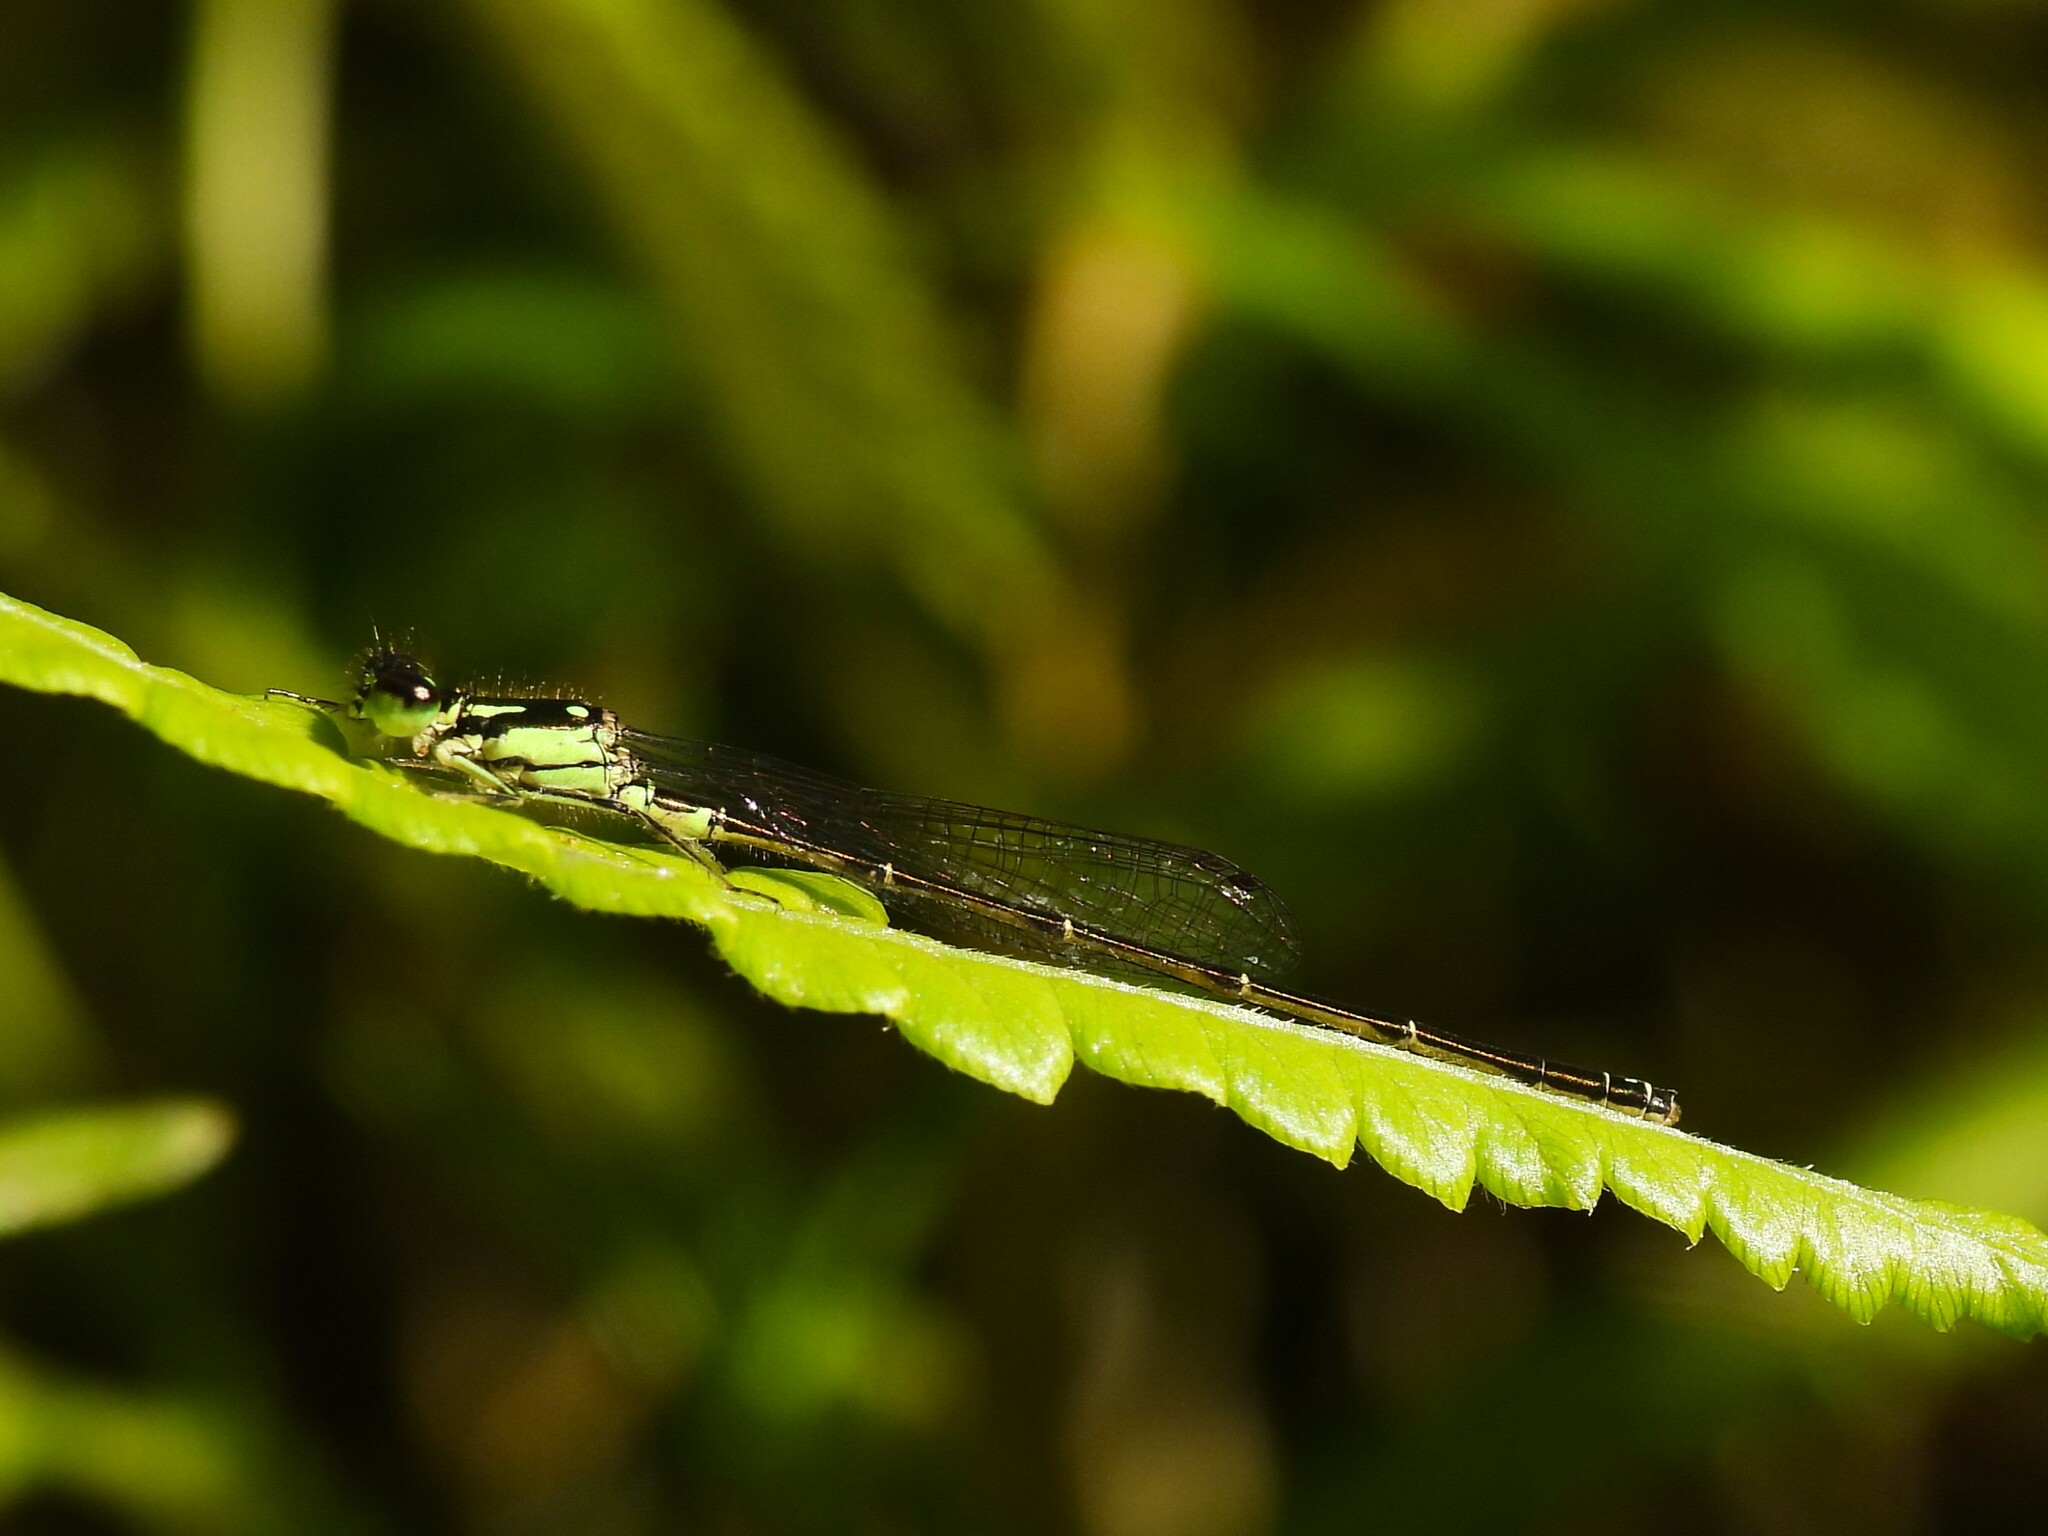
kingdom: Animalia
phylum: Arthropoda
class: Insecta
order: Odonata
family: Coenagrionidae
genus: Ischnura
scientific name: Ischnura posita
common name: Fragile forktail
